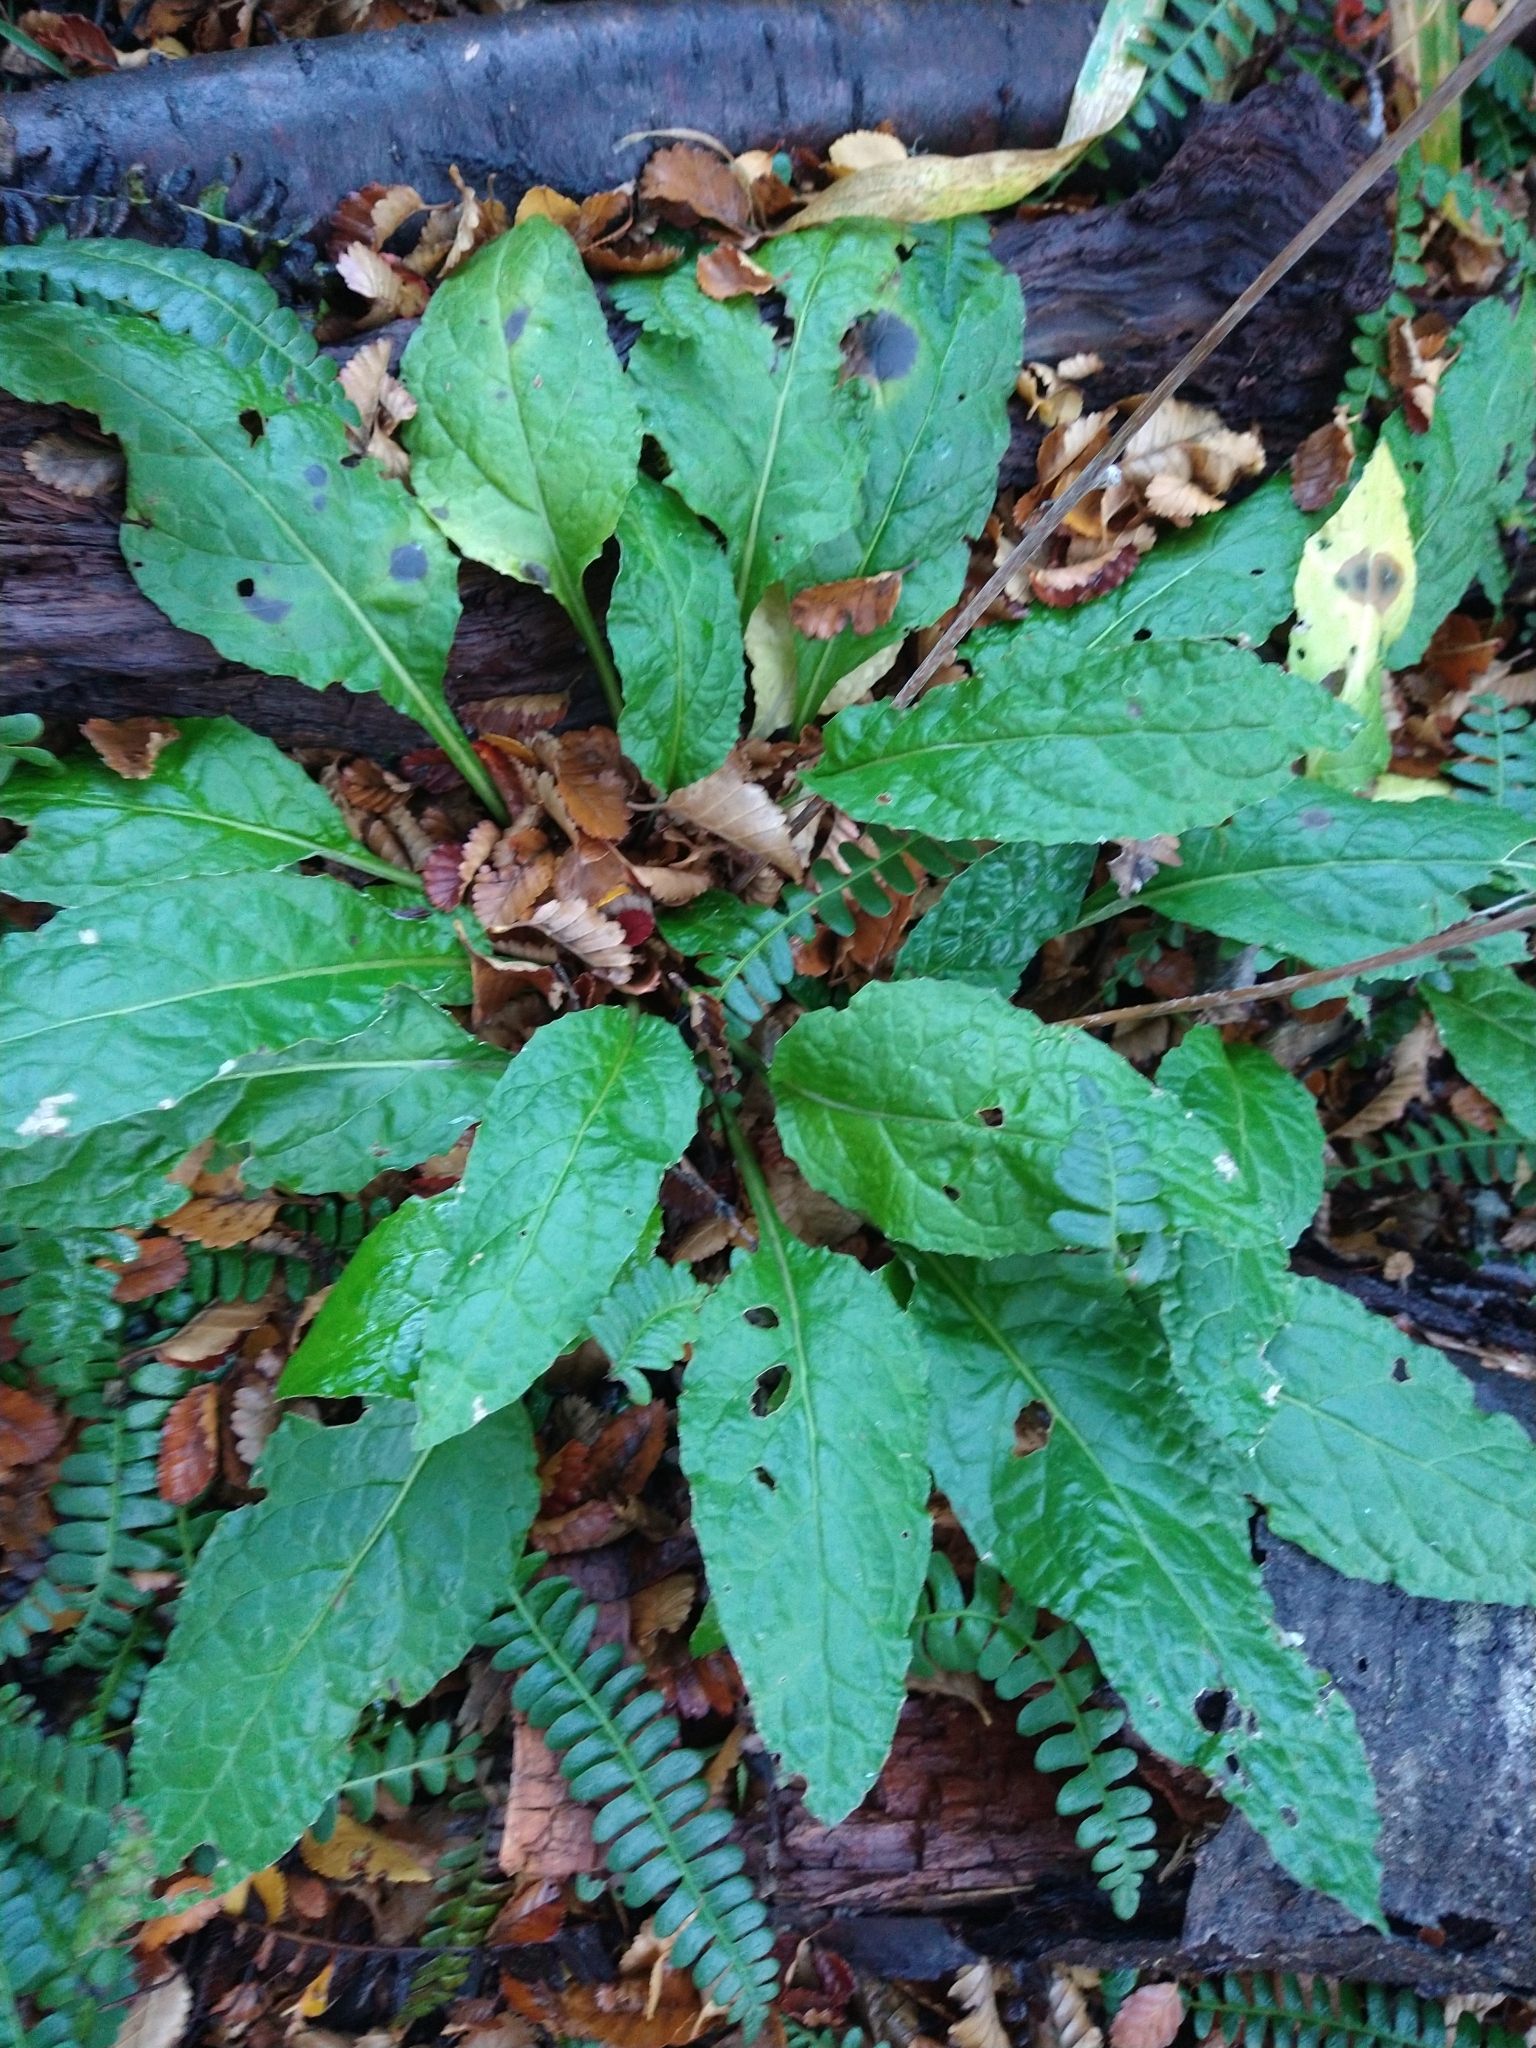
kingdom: Plantae
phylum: Tracheophyta
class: Magnoliopsida
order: Asterales
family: Asteraceae
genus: Adenocaulon
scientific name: Adenocaulon chilense
